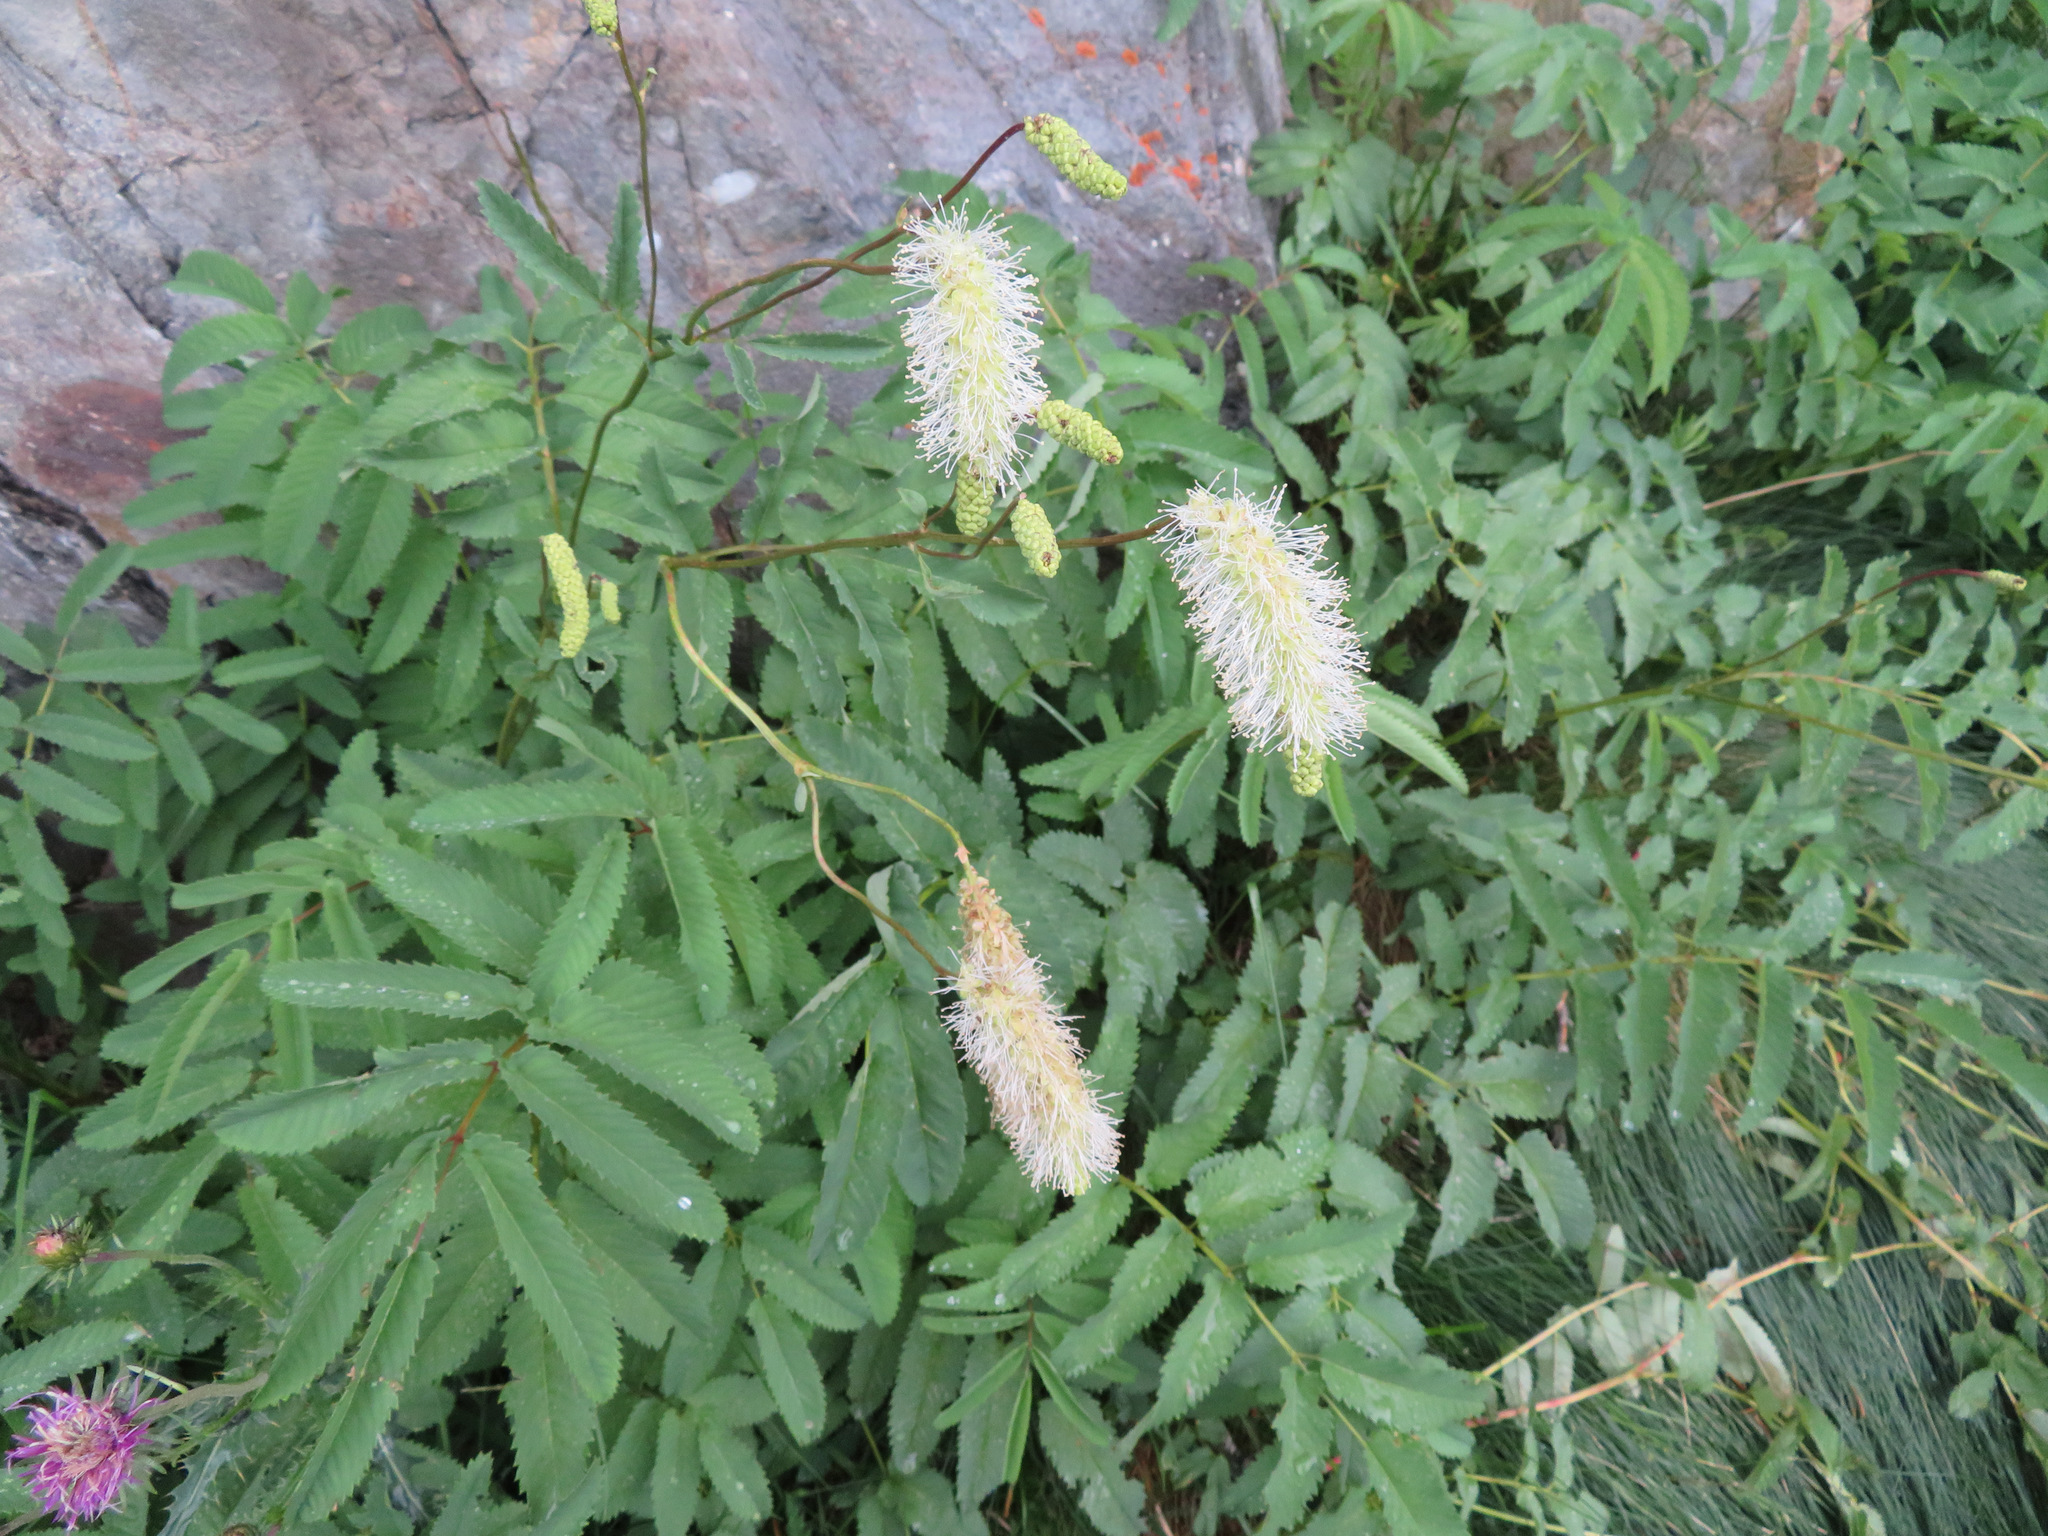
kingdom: Plantae
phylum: Tracheophyta
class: Magnoliopsida
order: Rosales
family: Rosaceae
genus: Poterium
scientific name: Poterium dodecandrum
